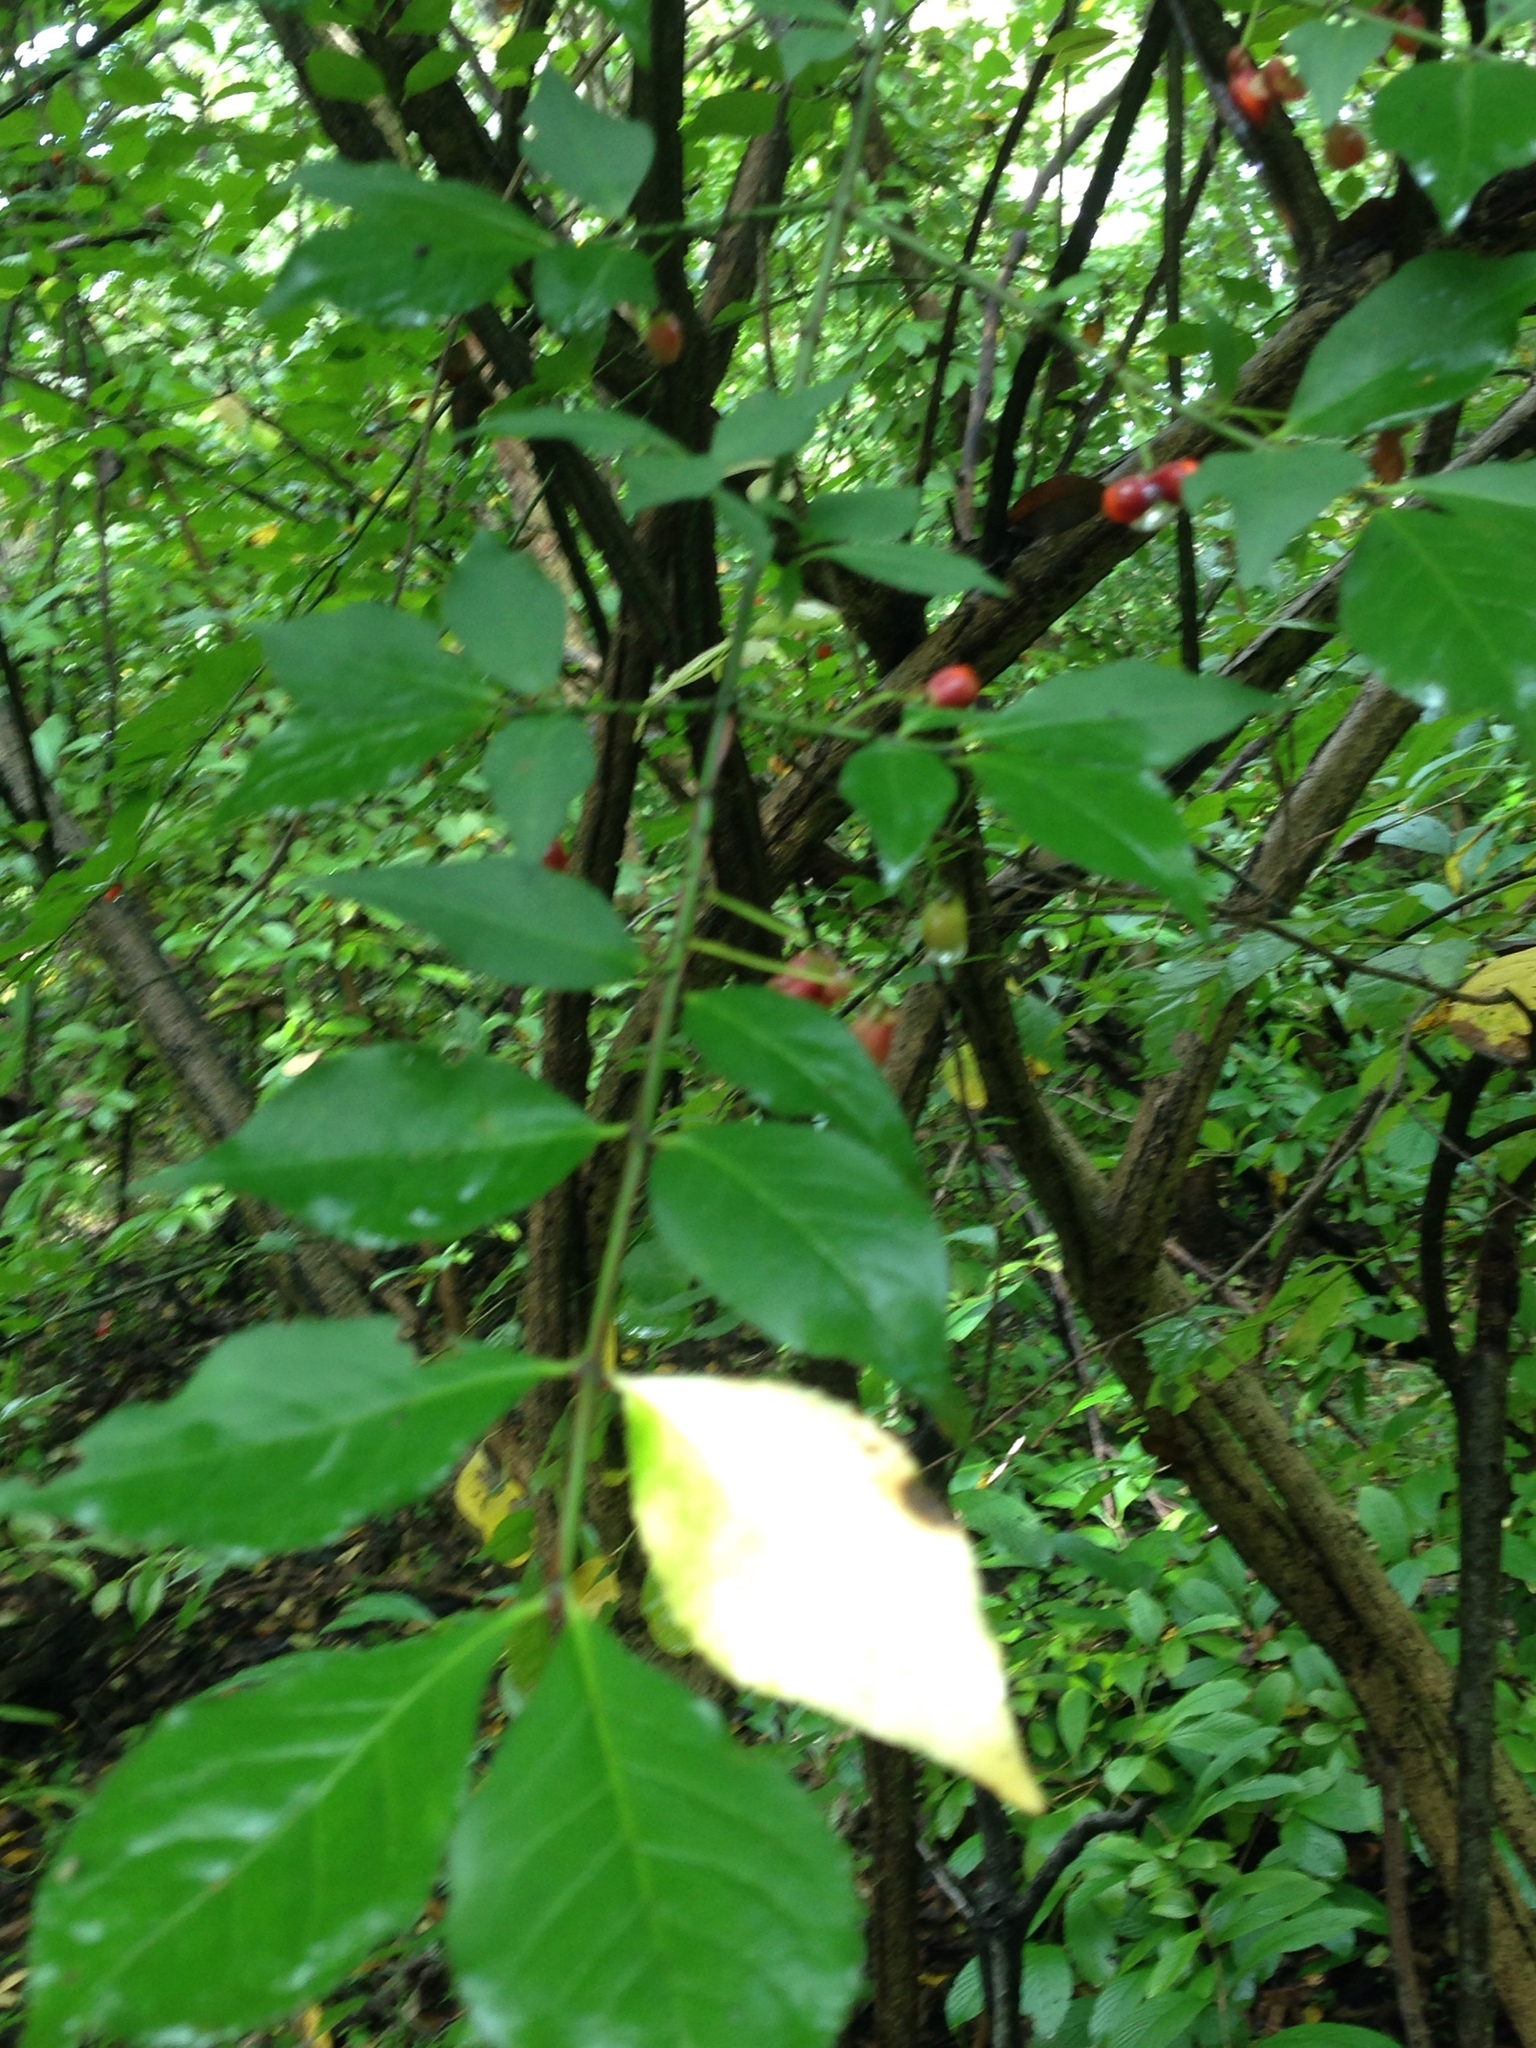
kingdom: Plantae
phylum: Tracheophyta
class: Magnoliopsida
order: Celastrales
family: Celastraceae
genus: Euonymus
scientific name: Euonymus alatus
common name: Winged euonymus
